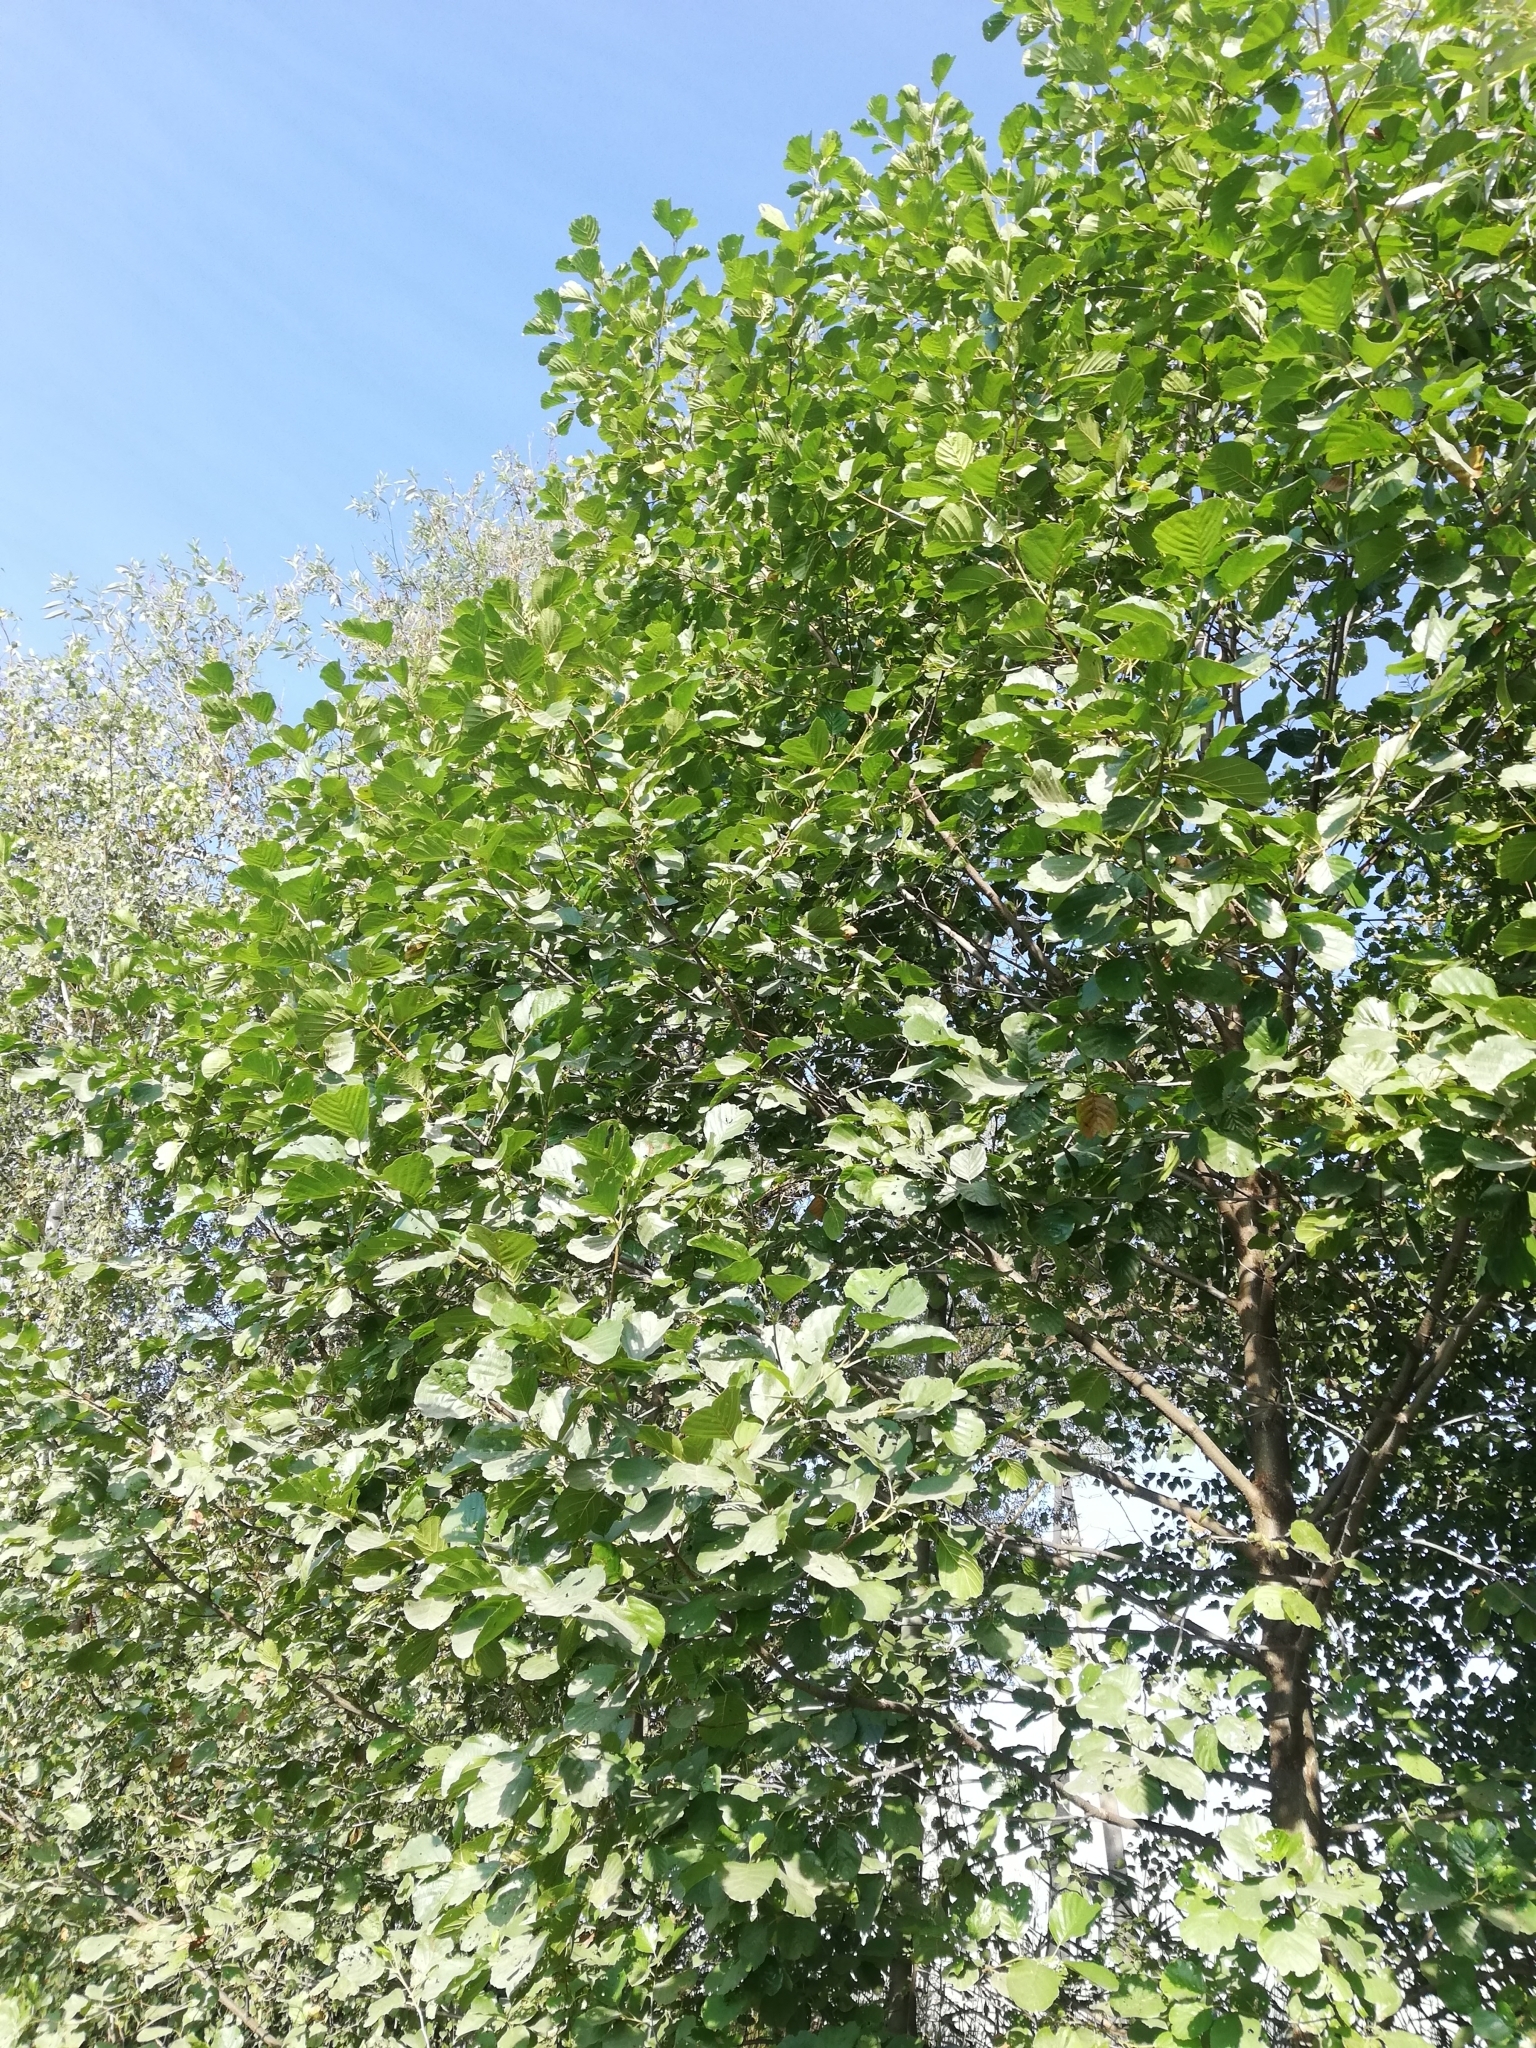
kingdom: Plantae
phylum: Tracheophyta
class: Magnoliopsida
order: Fagales
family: Betulaceae
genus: Alnus
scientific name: Alnus glutinosa
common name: Black alder
